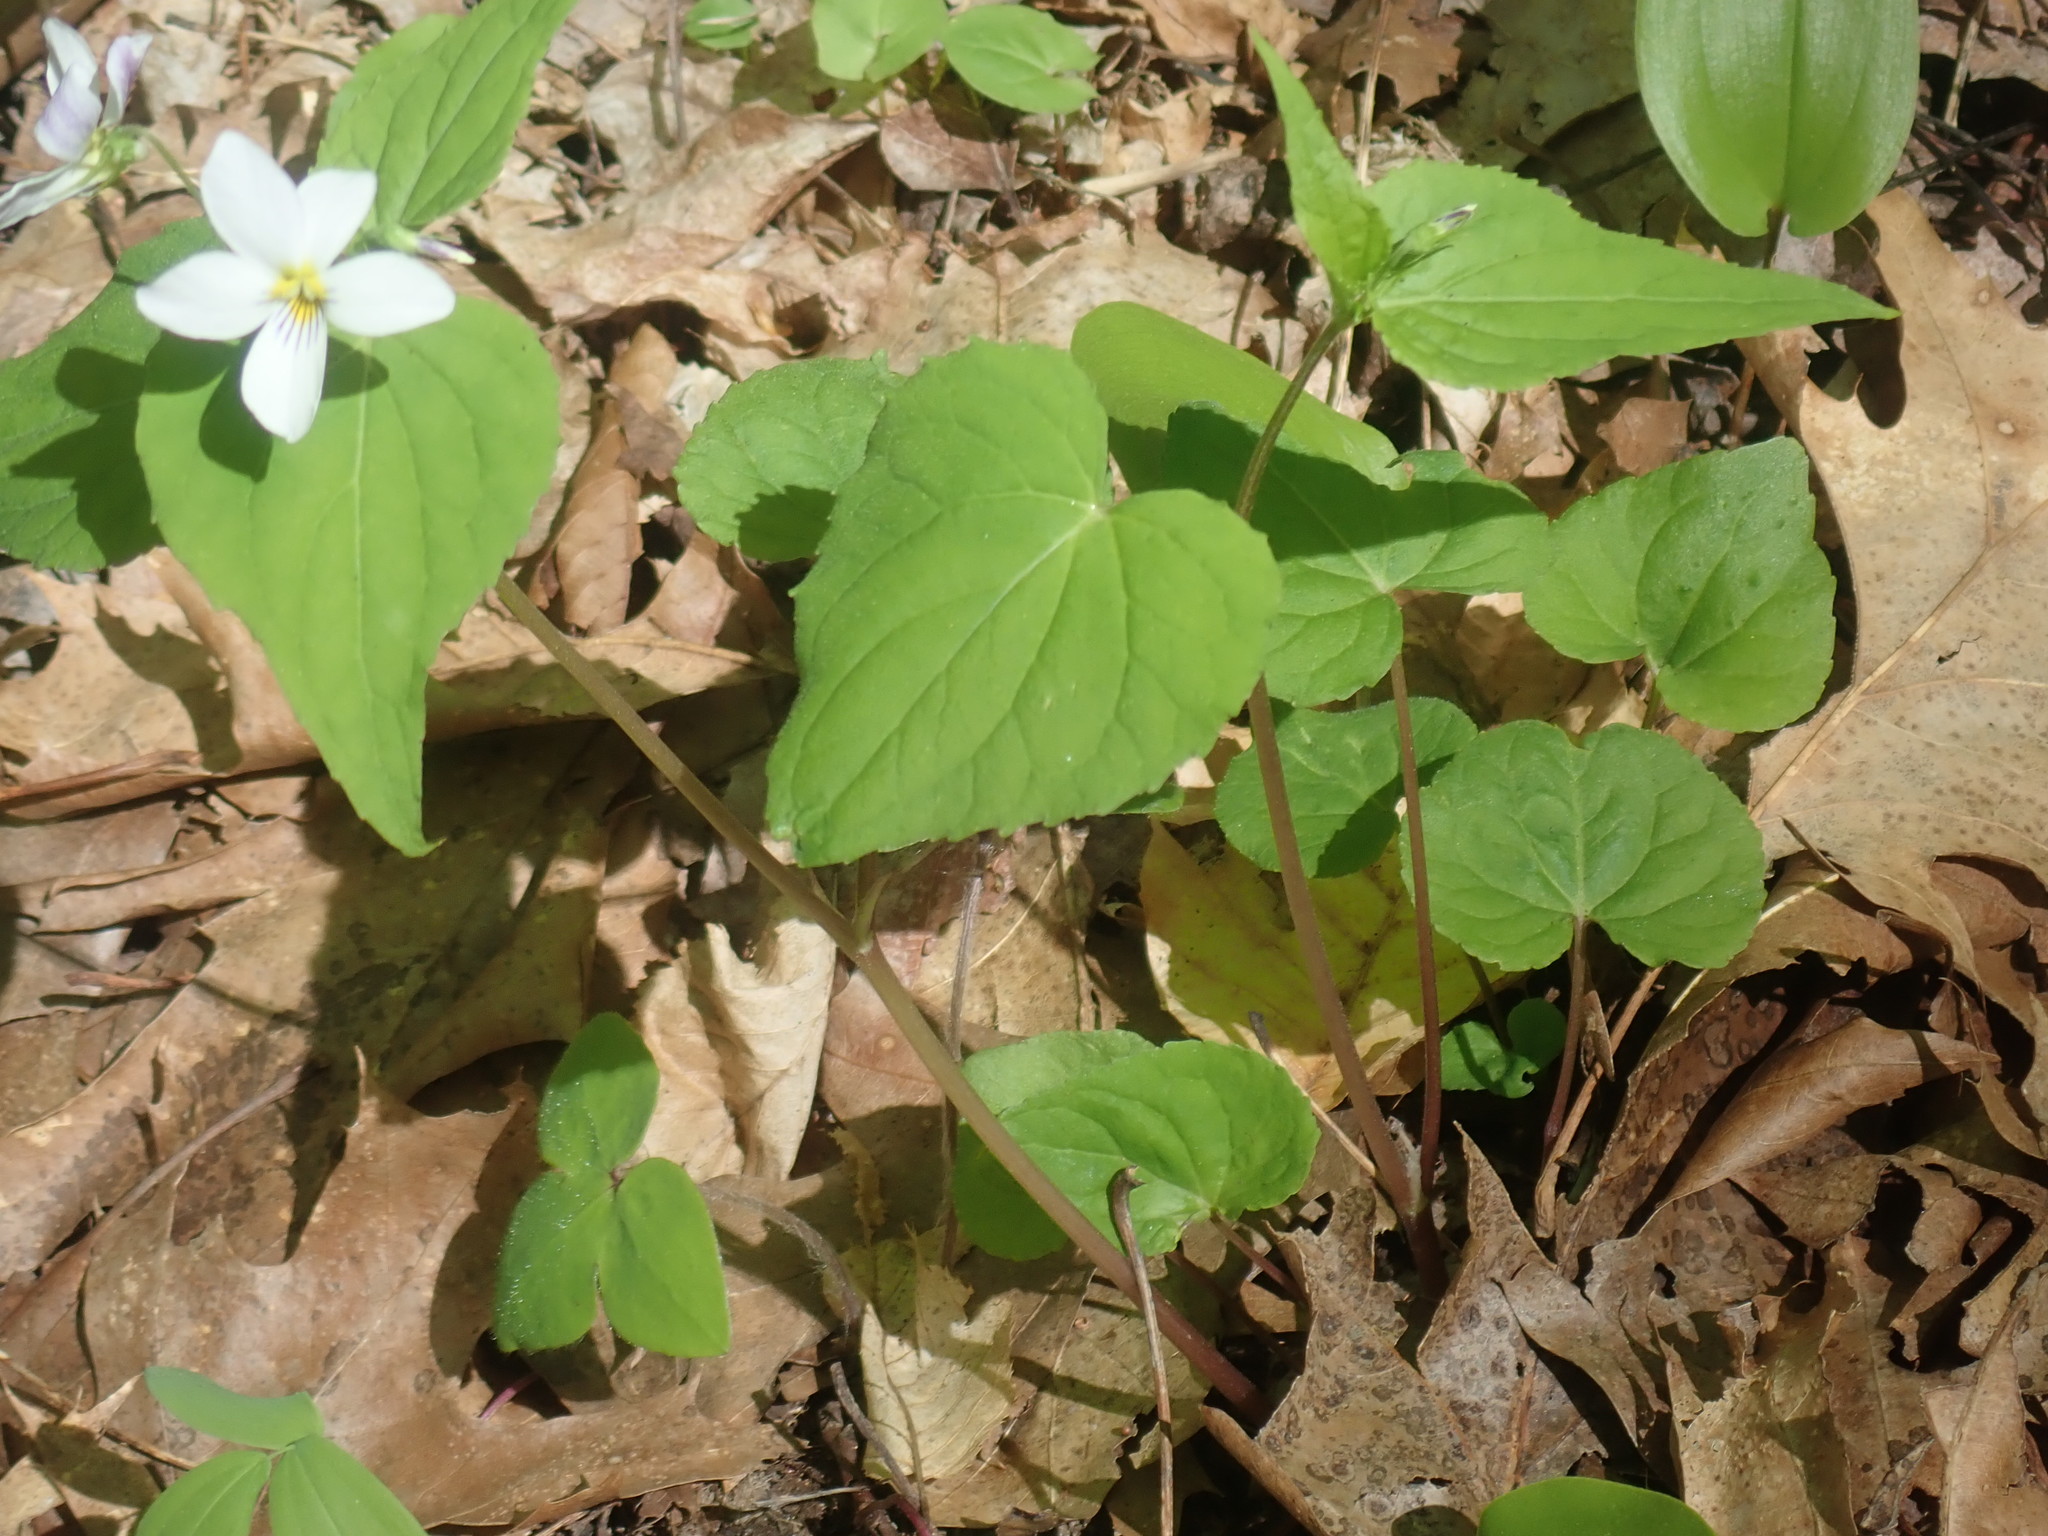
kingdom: Plantae
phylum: Tracheophyta
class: Magnoliopsida
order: Malpighiales
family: Violaceae
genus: Viola
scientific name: Viola canadensis
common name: Canada violet
